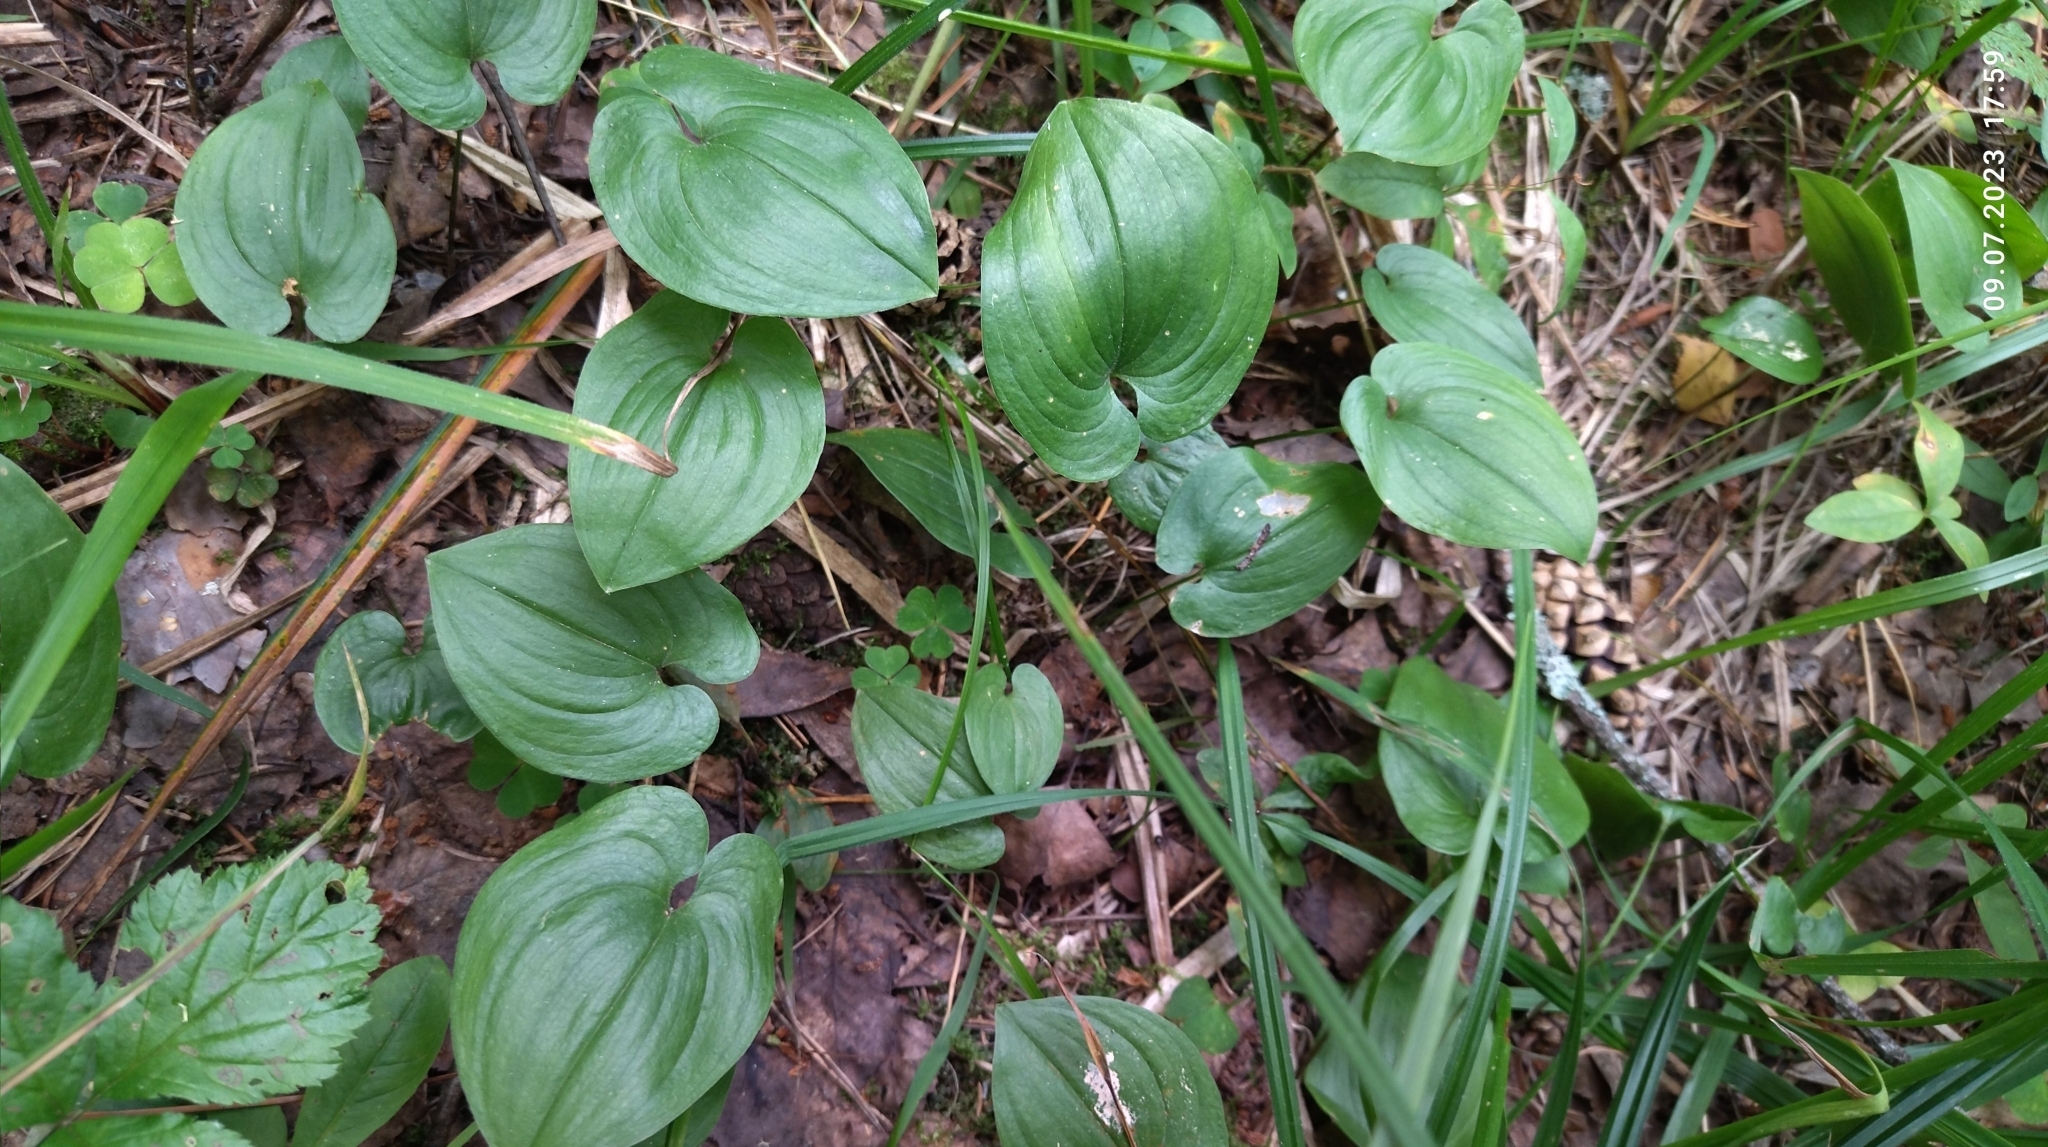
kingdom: Plantae
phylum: Tracheophyta
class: Liliopsida
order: Asparagales
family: Asparagaceae
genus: Maianthemum
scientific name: Maianthemum bifolium
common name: May lily
